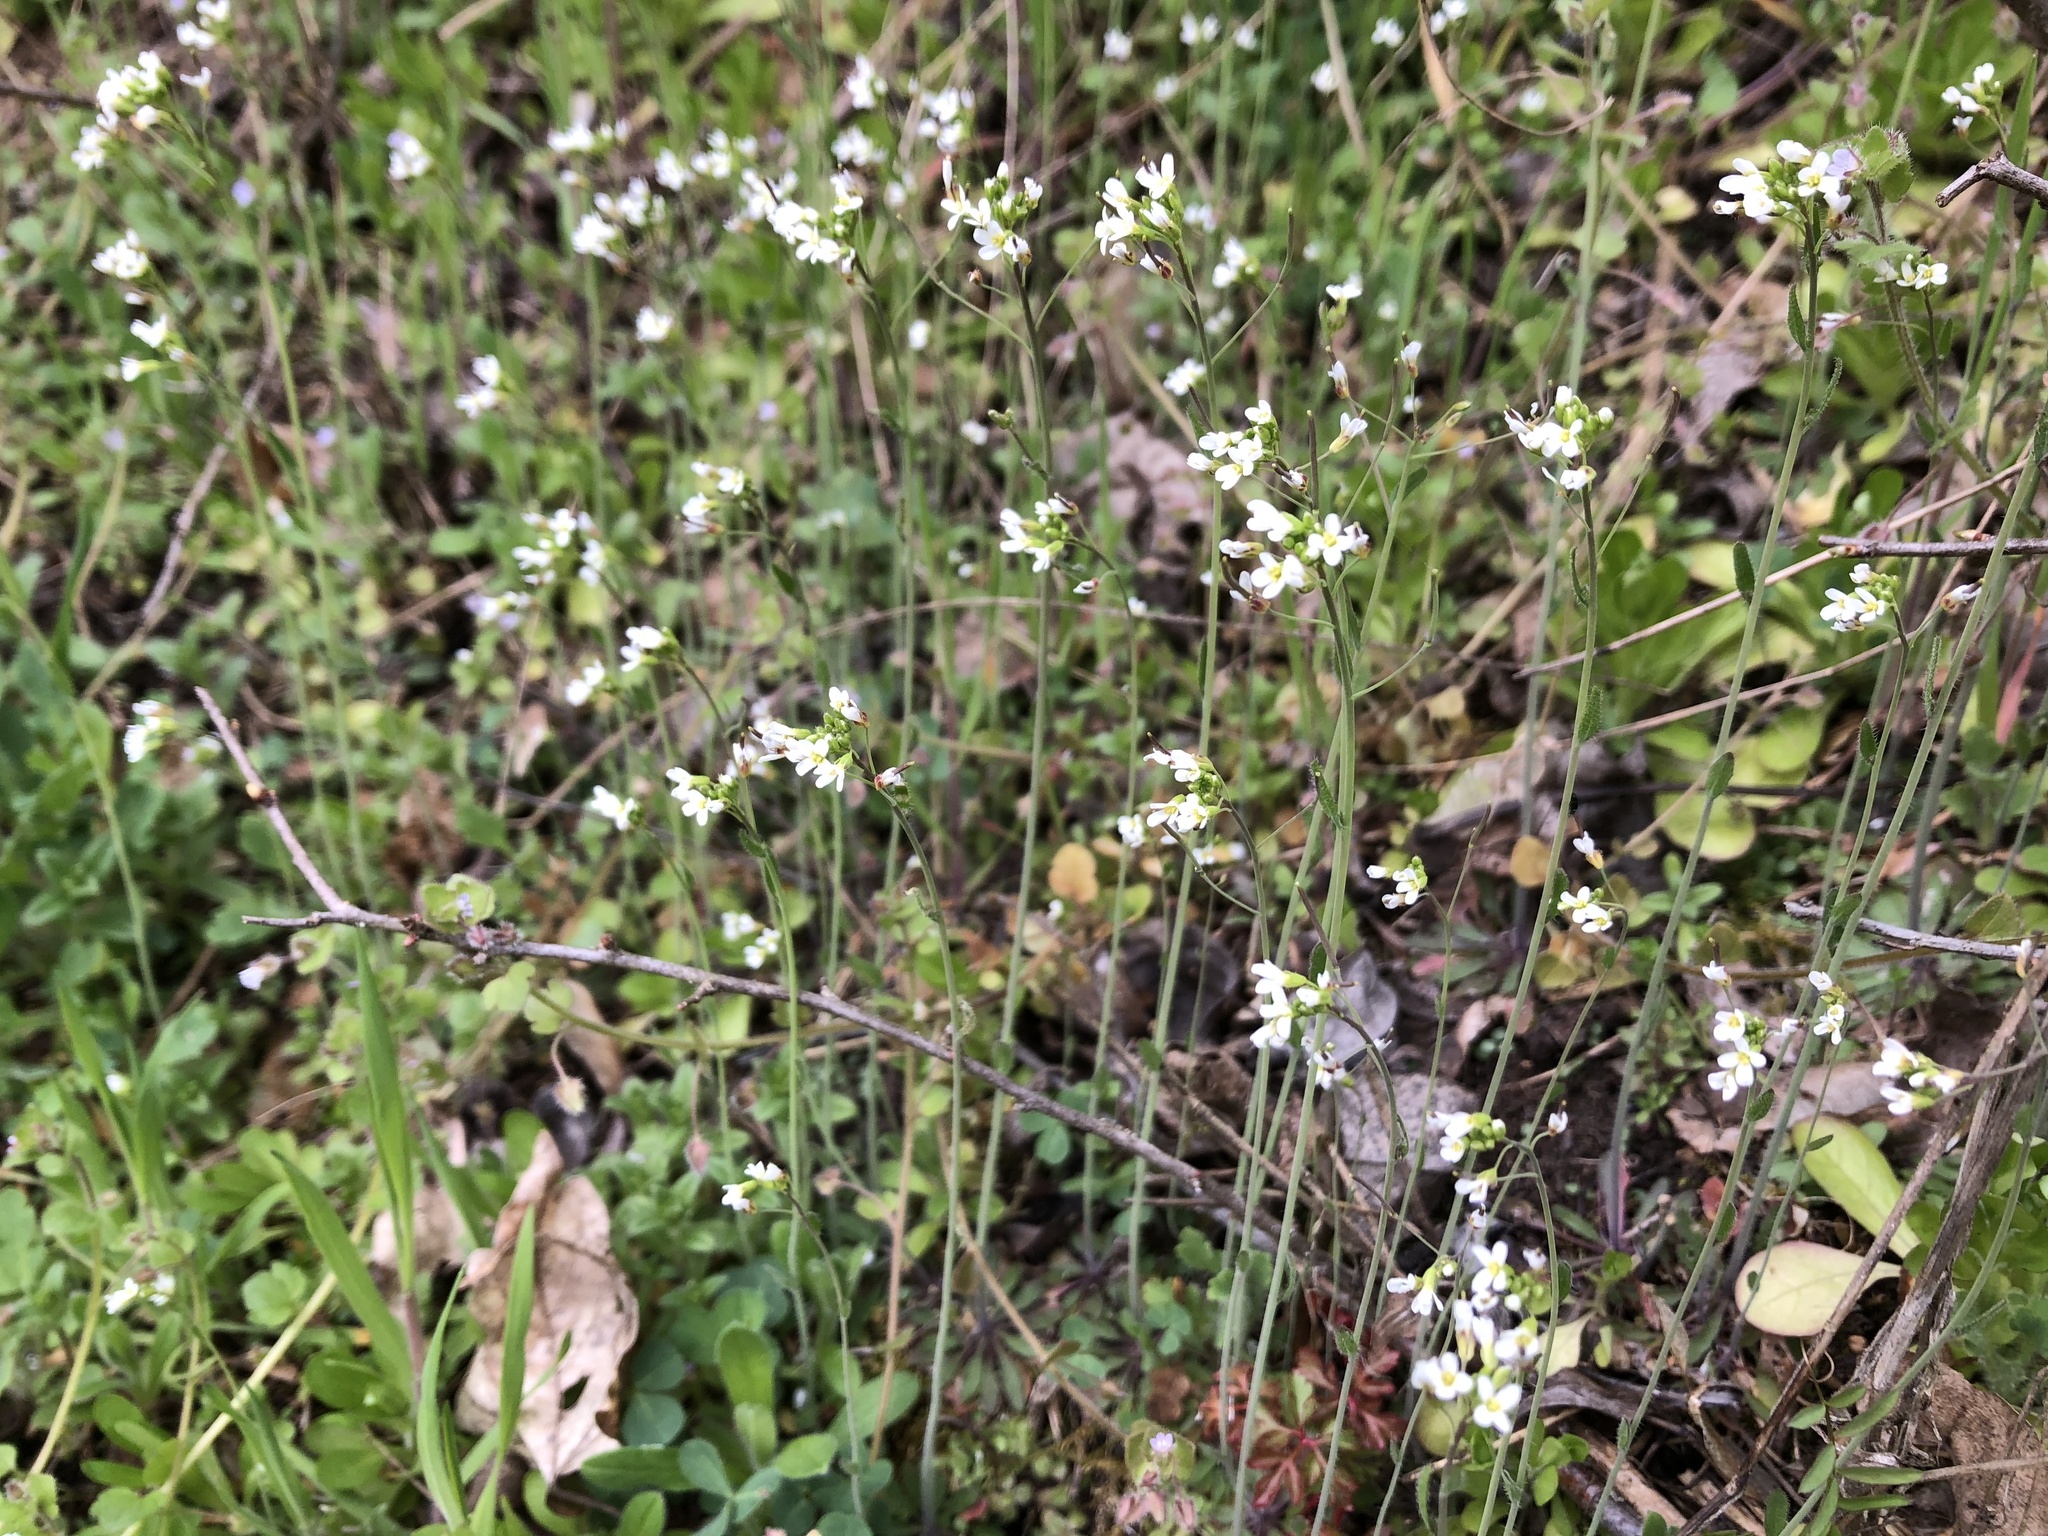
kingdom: Plantae
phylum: Tracheophyta
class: Magnoliopsida
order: Brassicales
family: Brassicaceae
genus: Arabidopsis
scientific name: Arabidopsis thaliana
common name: Thale cress
